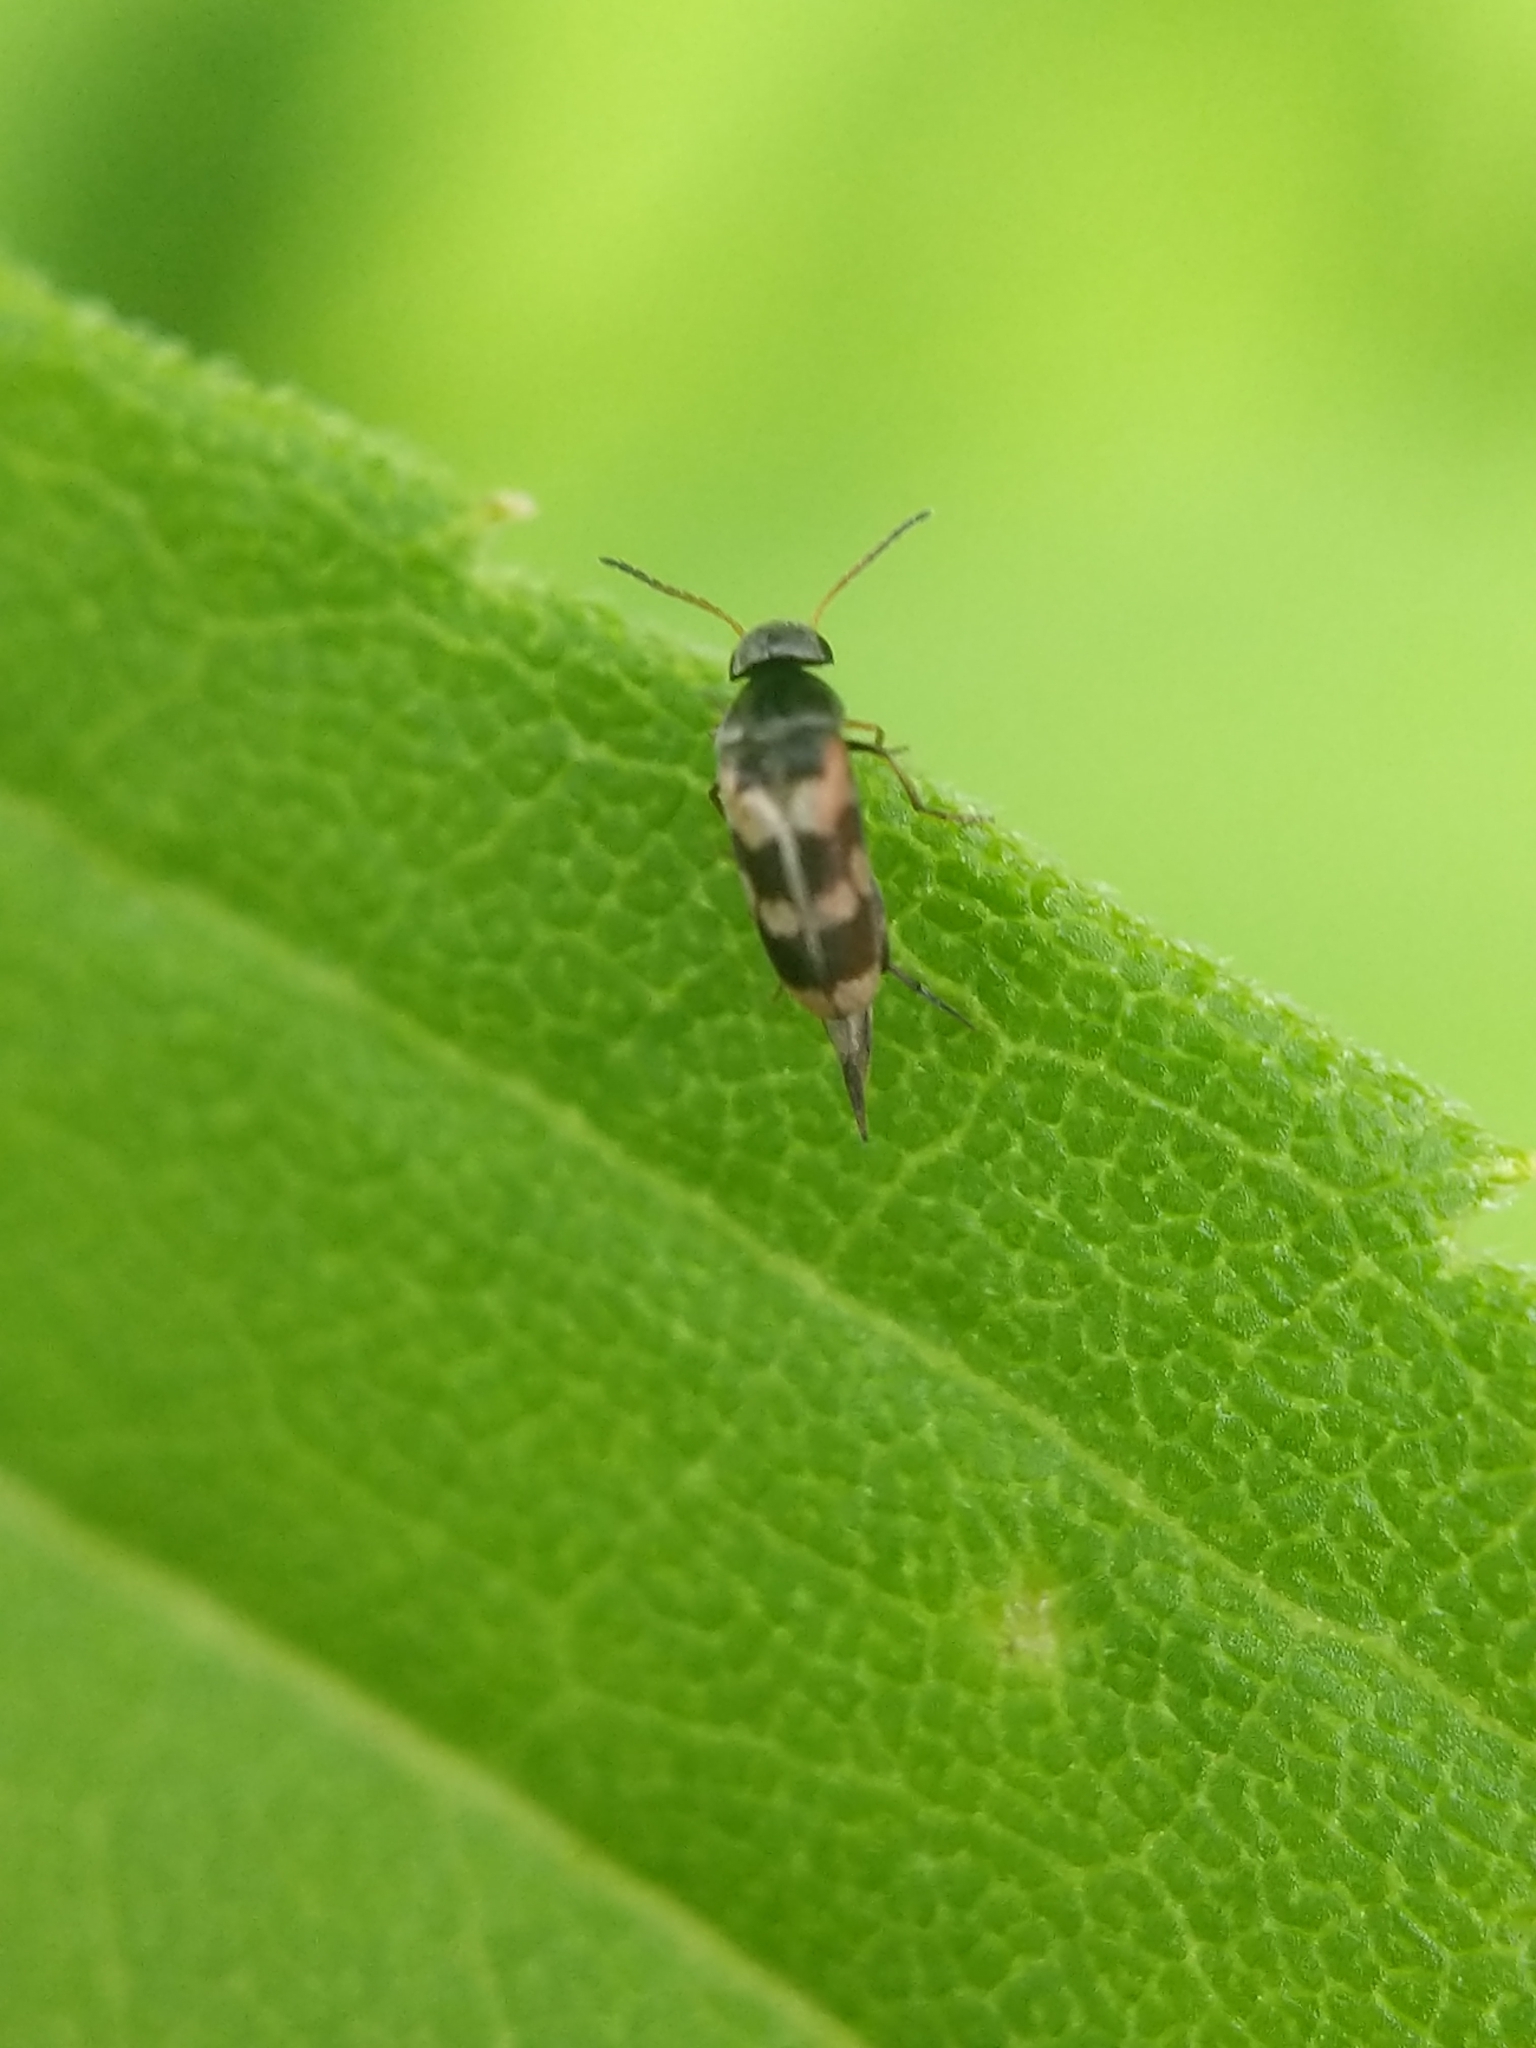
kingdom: Animalia
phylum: Arthropoda
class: Insecta
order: Coleoptera
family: Mordellidae
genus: Falsomordellistena
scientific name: Falsomordellistena pubescens
